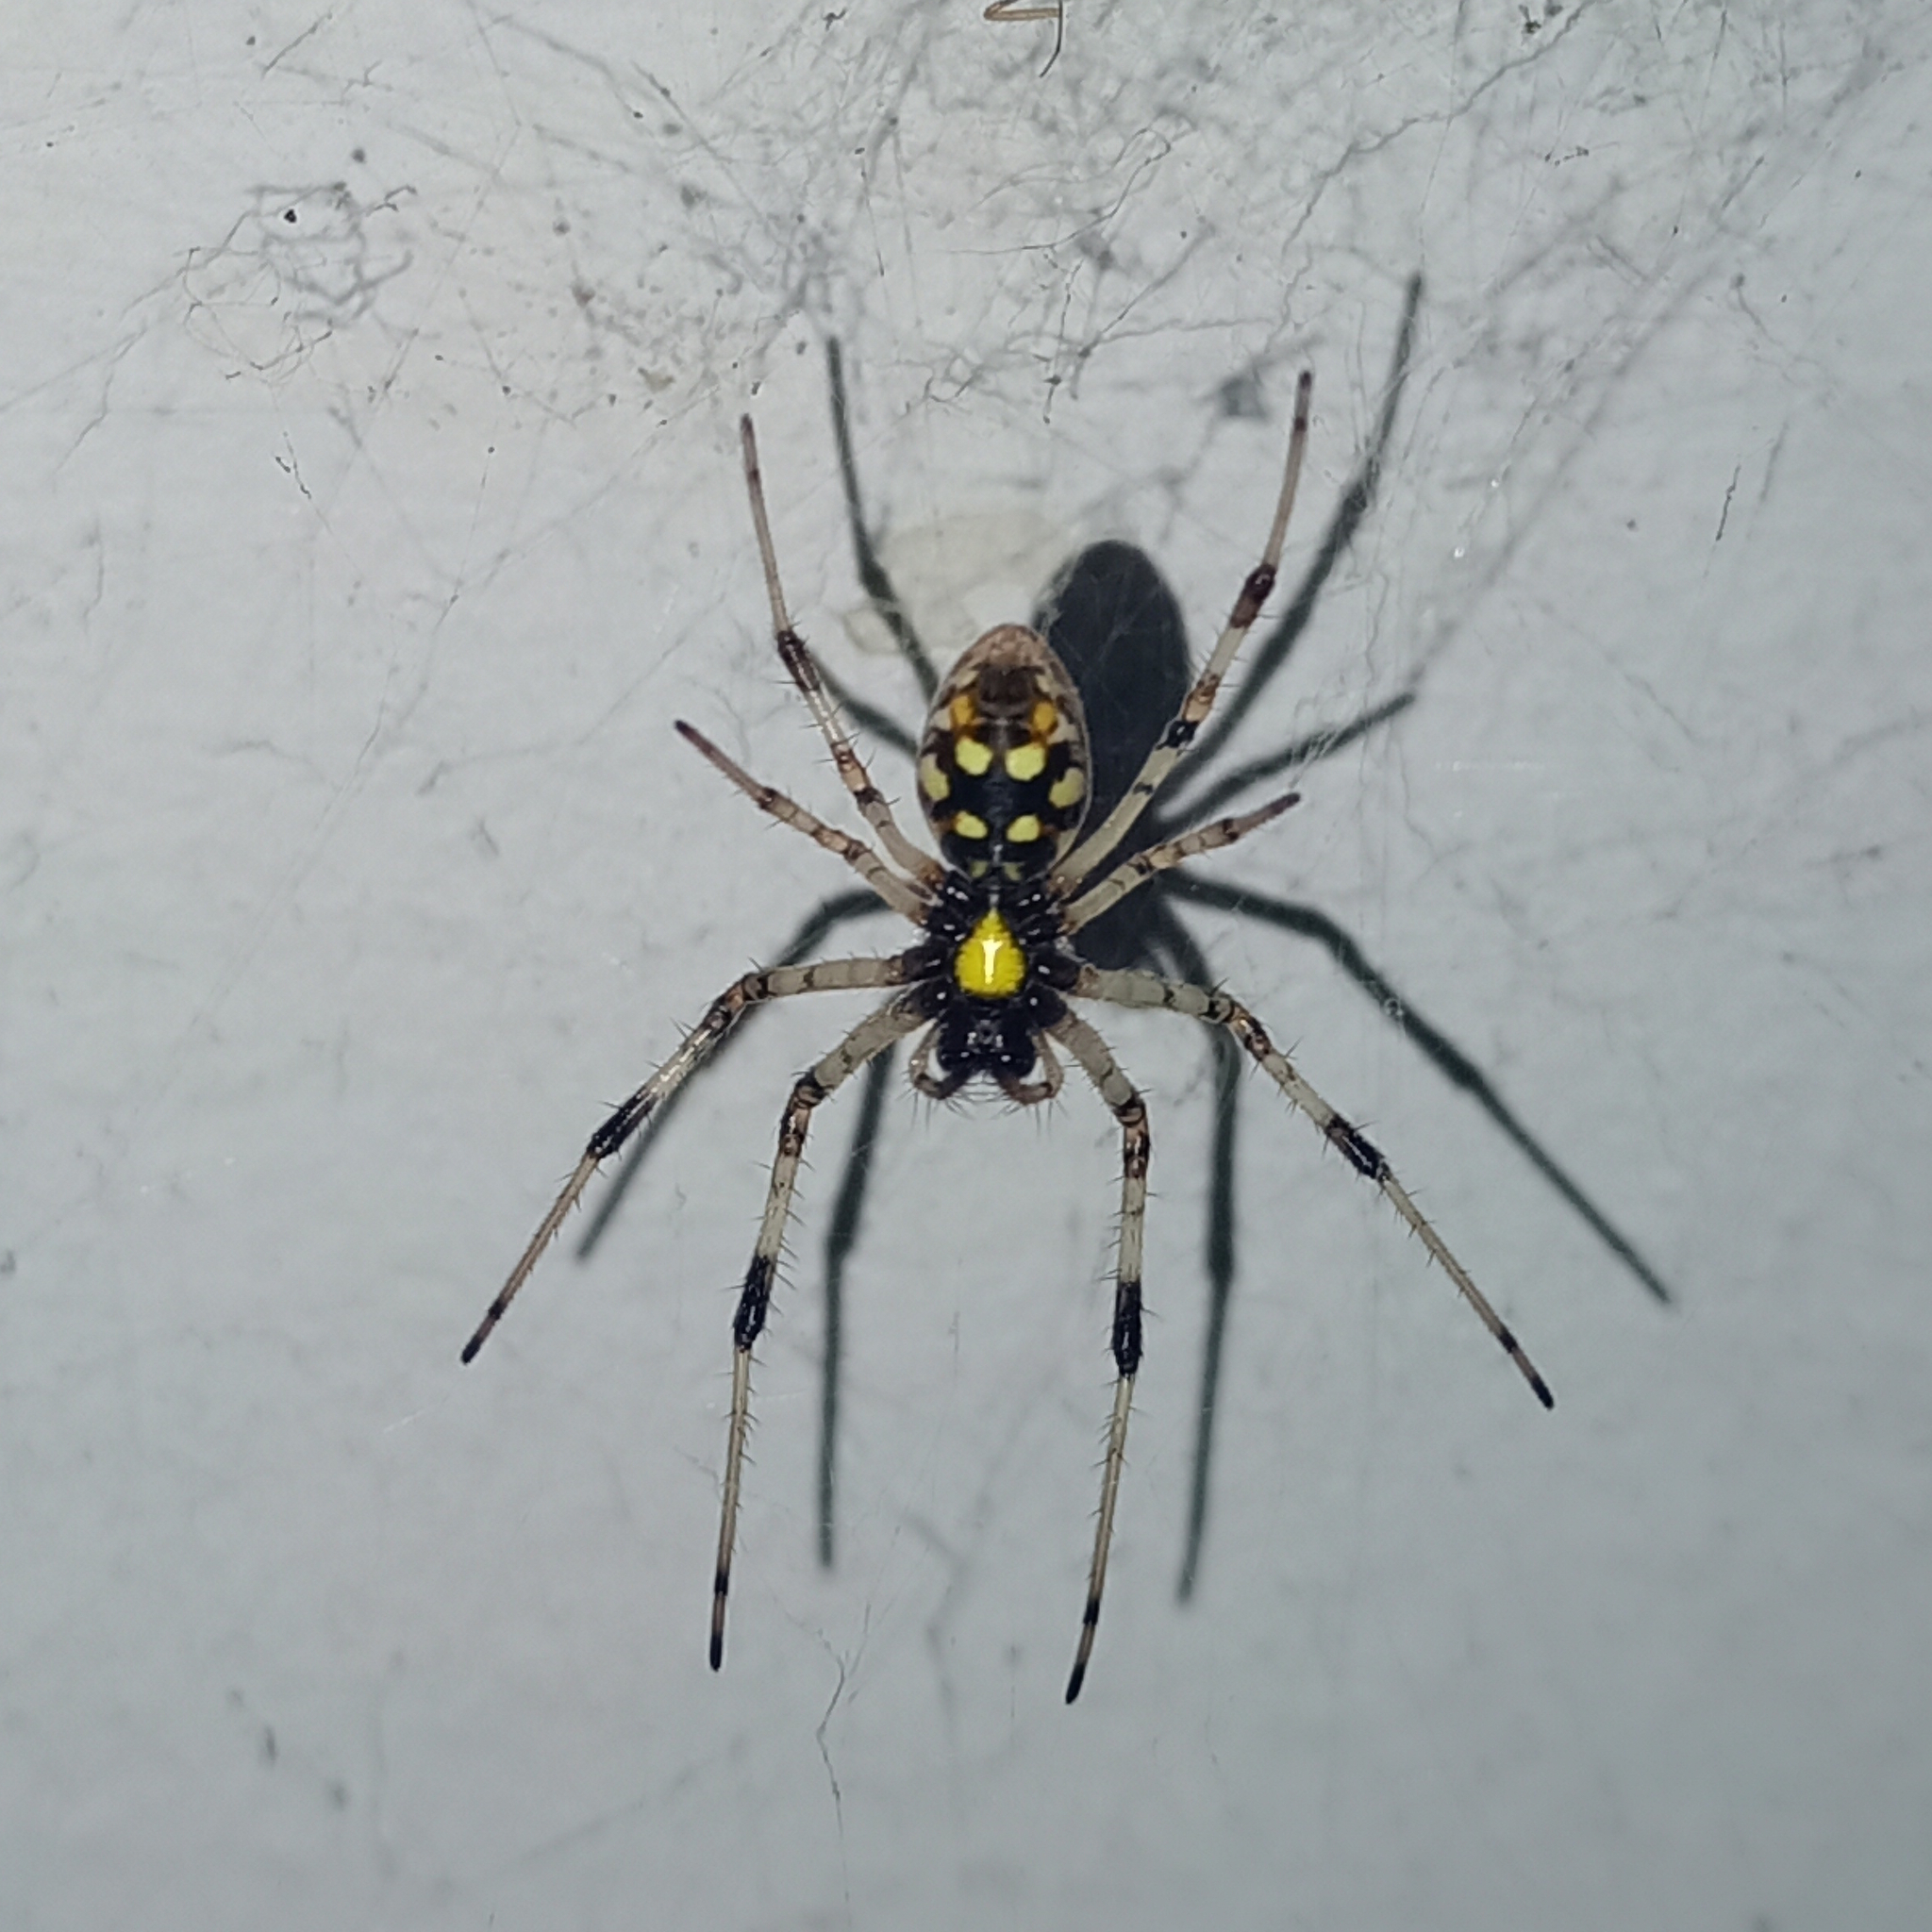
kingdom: Animalia
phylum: Arthropoda
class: Arachnida
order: Araneae
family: Araneidae
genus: Nephilingis
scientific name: Nephilingis cruentata
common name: African hermit spider
